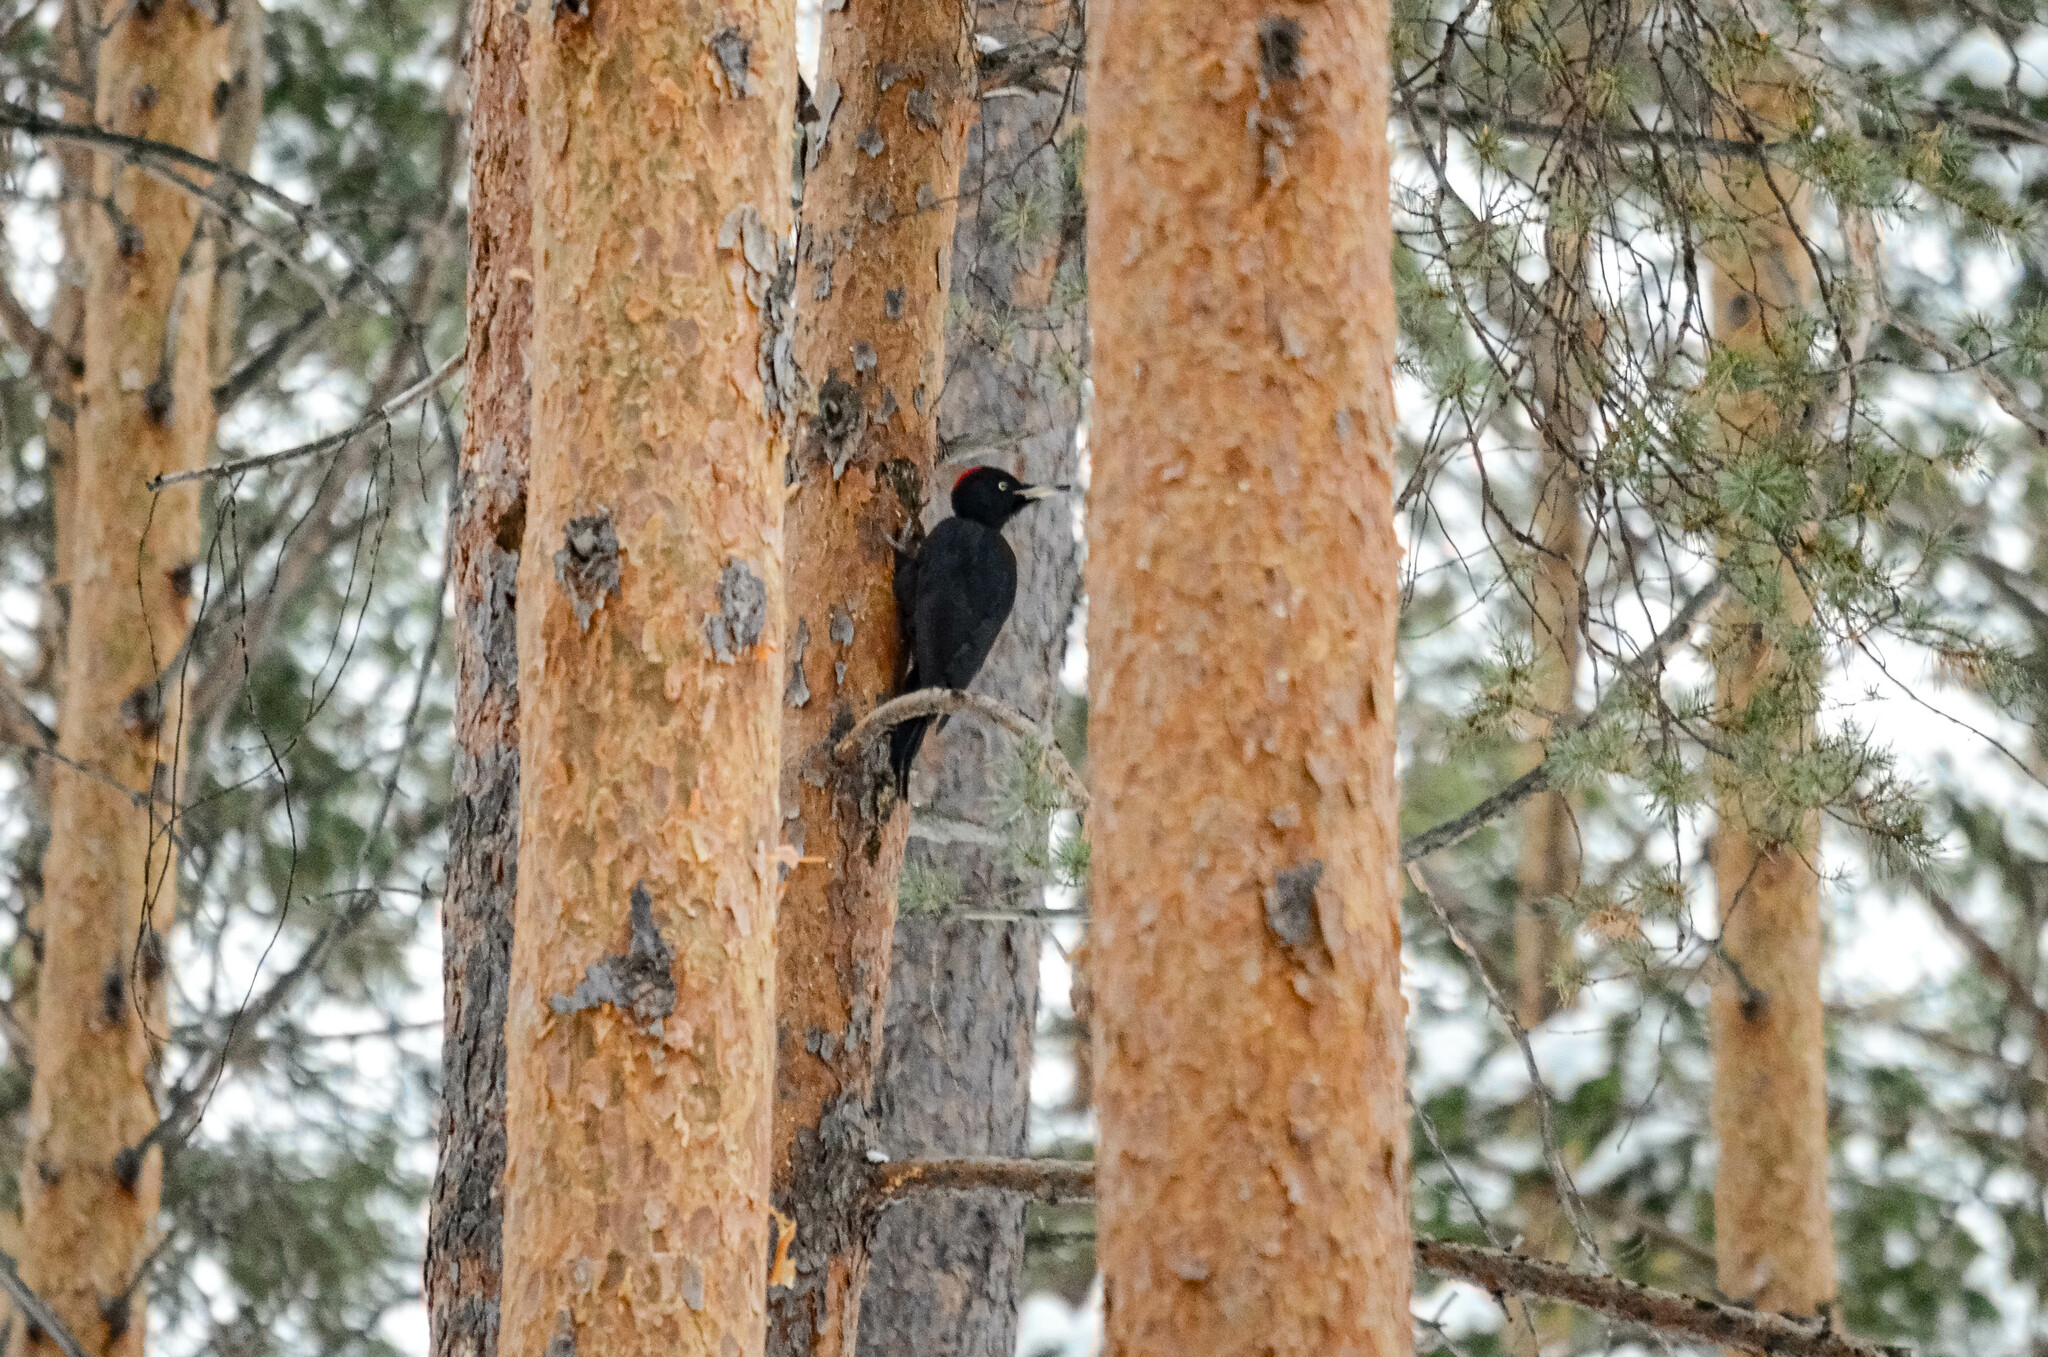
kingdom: Animalia
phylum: Chordata
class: Aves
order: Piciformes
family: Picidae
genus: Dryocopus
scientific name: Dryocopus martius
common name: Black woodpecker
